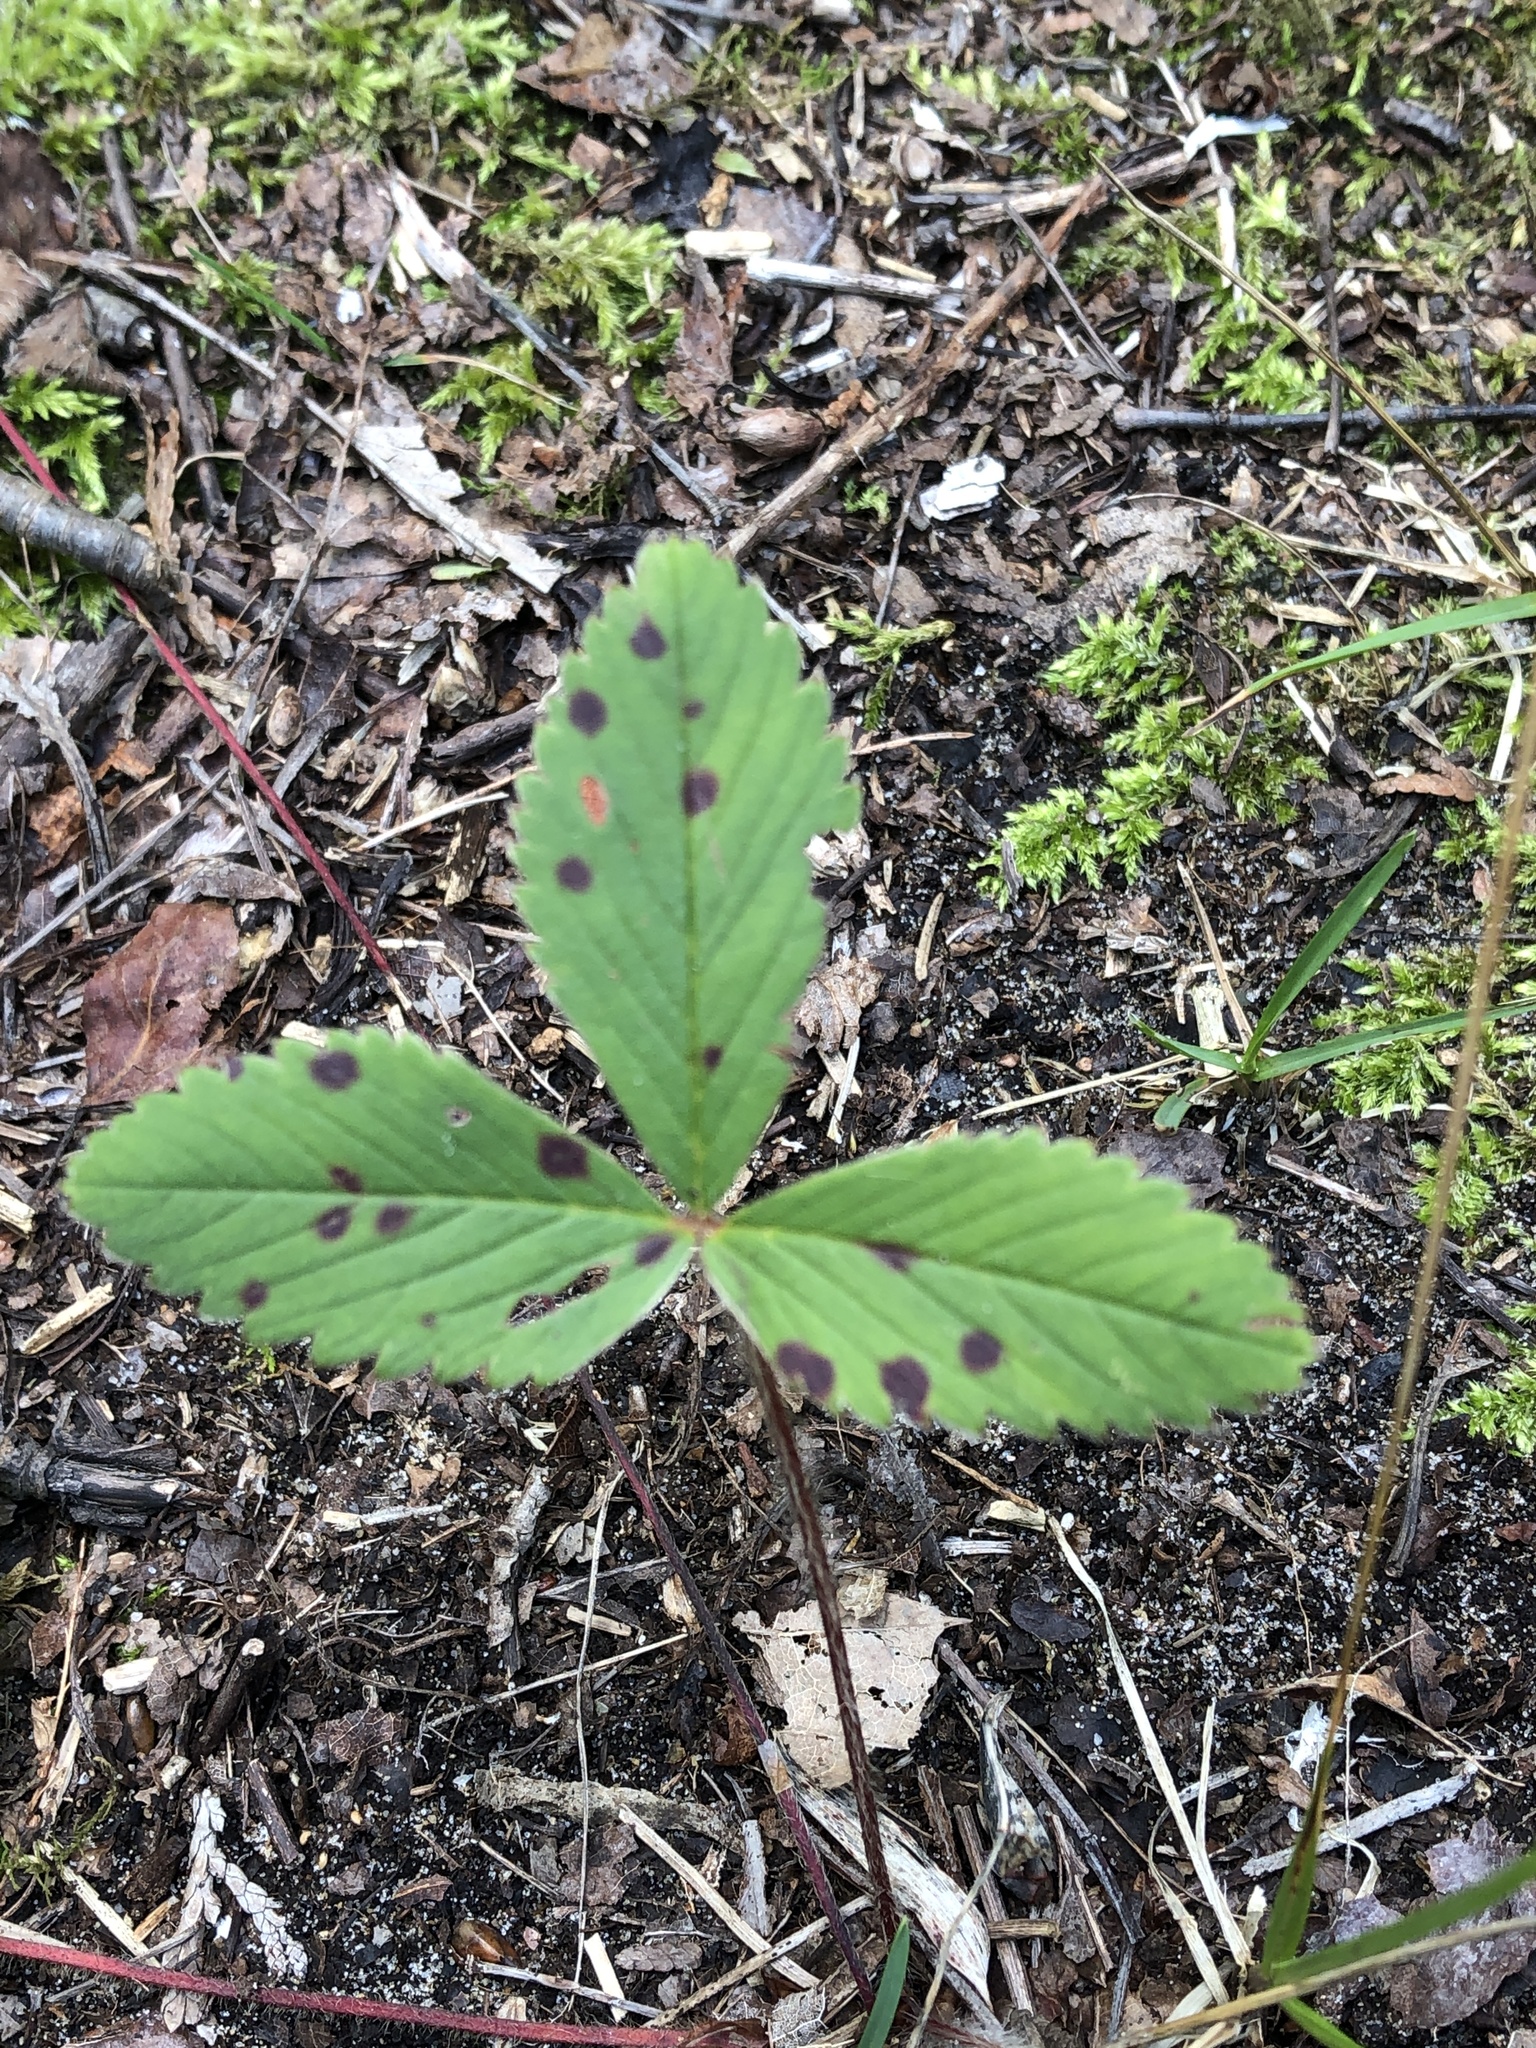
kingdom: Plantae
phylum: Tracheophyta
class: Magnoliopsida
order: Rosales
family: Rosaceae
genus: Fragaria
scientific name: Fragaria virginiana
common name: Thickleaved wild strawberry
